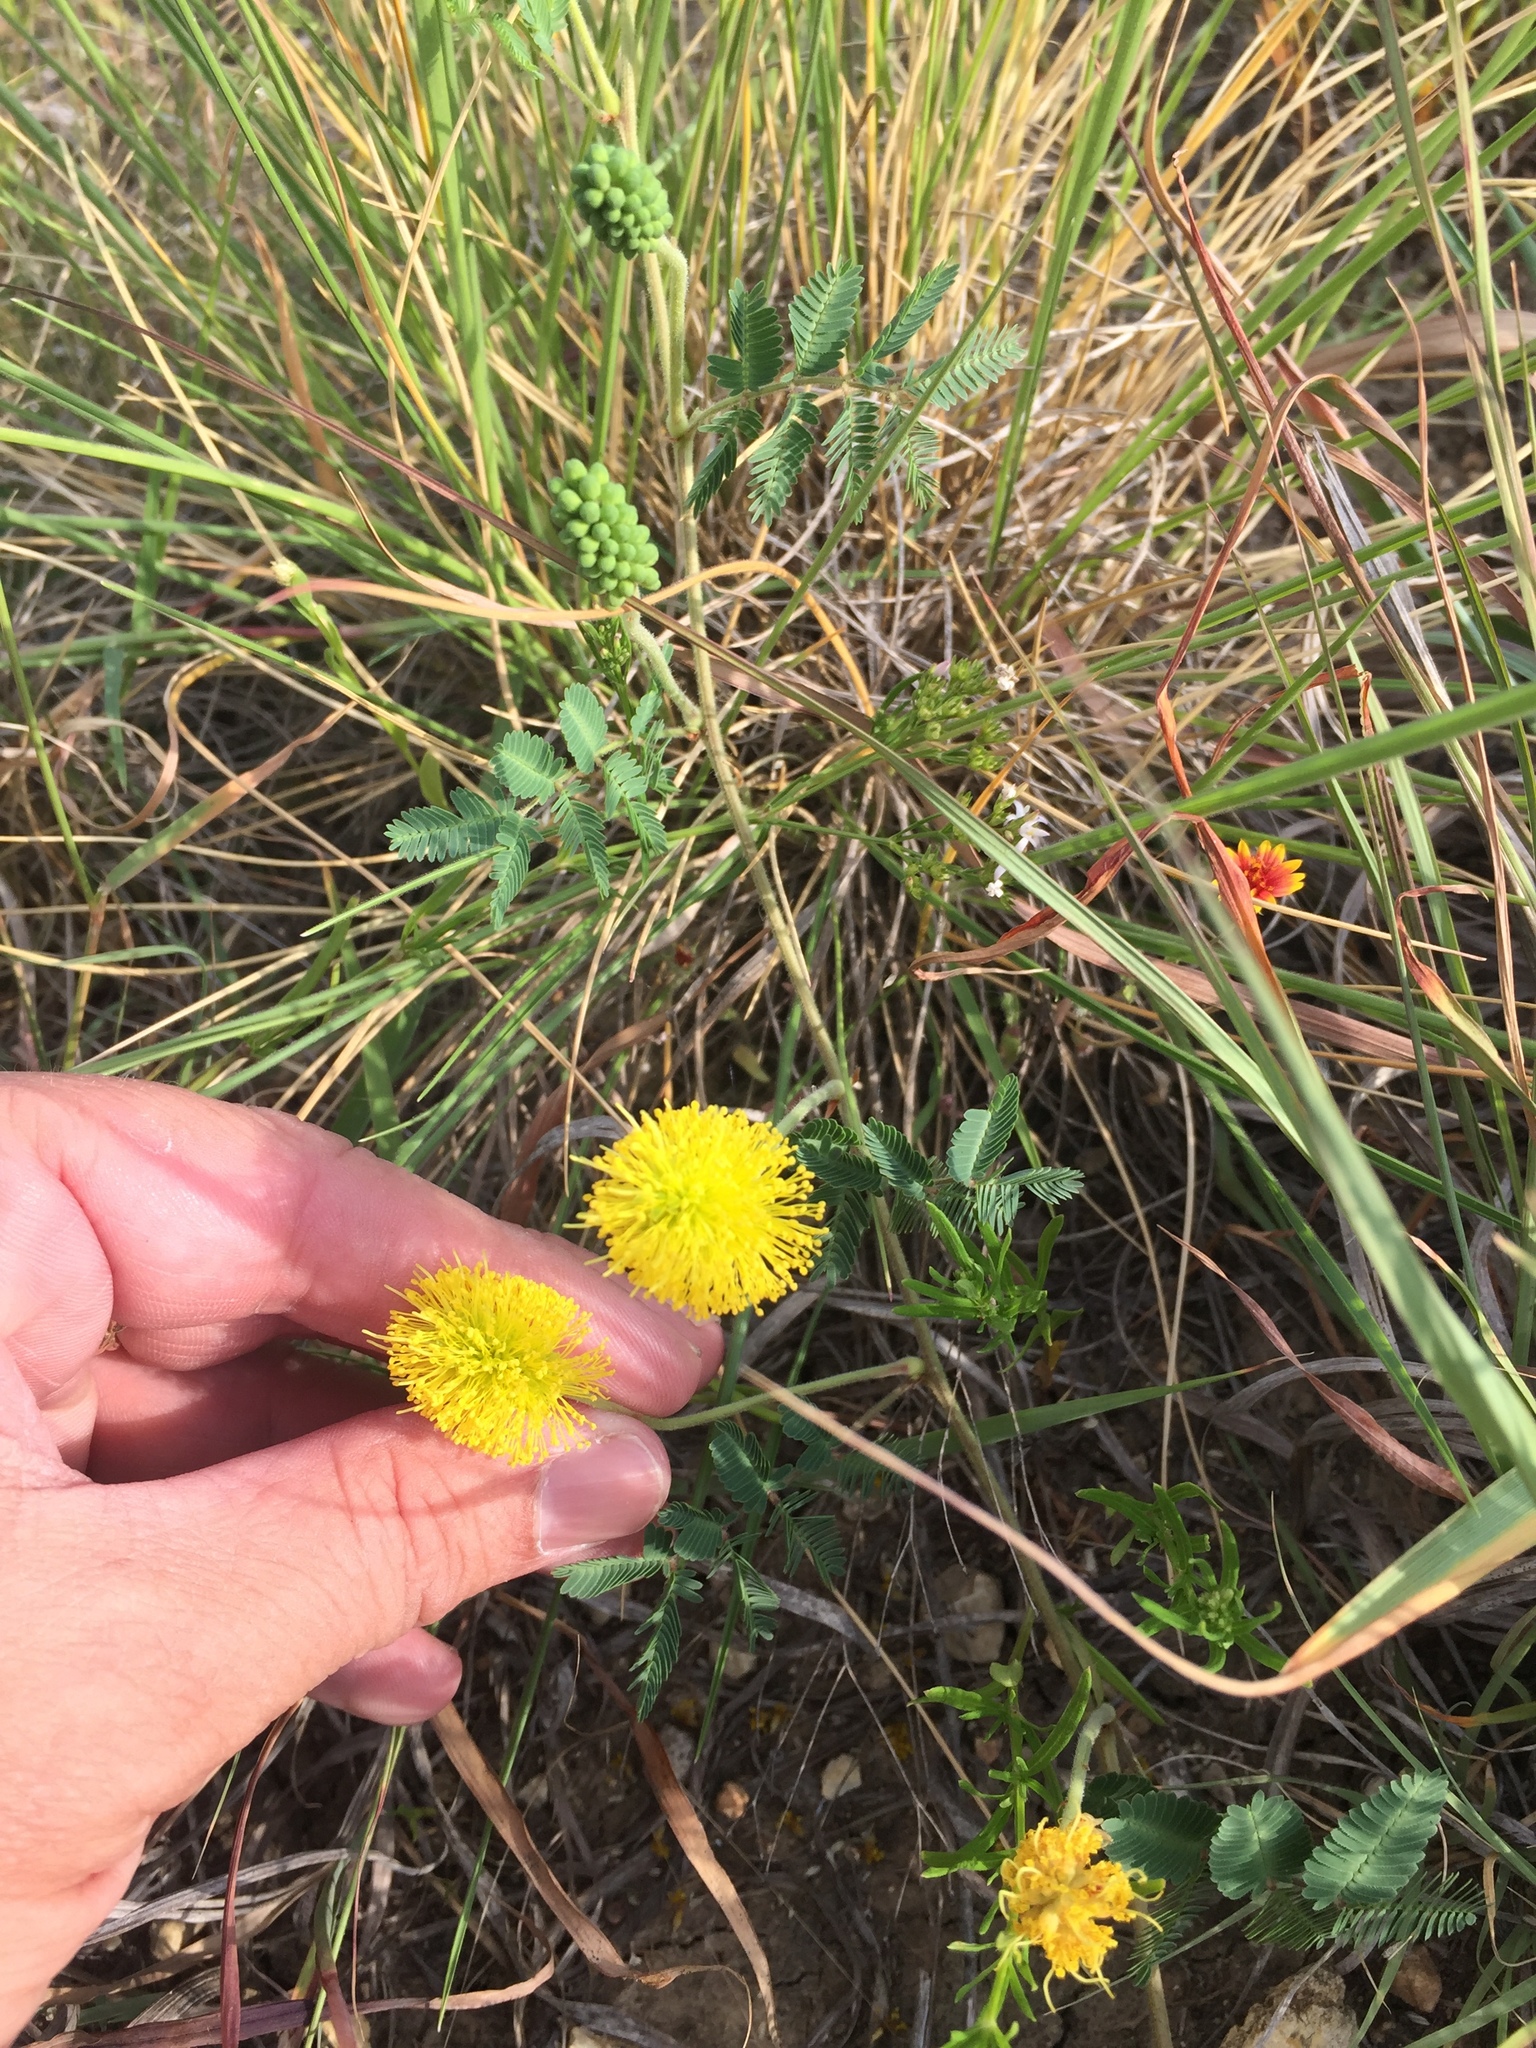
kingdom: Plantae
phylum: Tracheophyta
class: Magnoliopsida
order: Fabales
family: Fabaceae
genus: Neptunia
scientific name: Neptunia lutea
